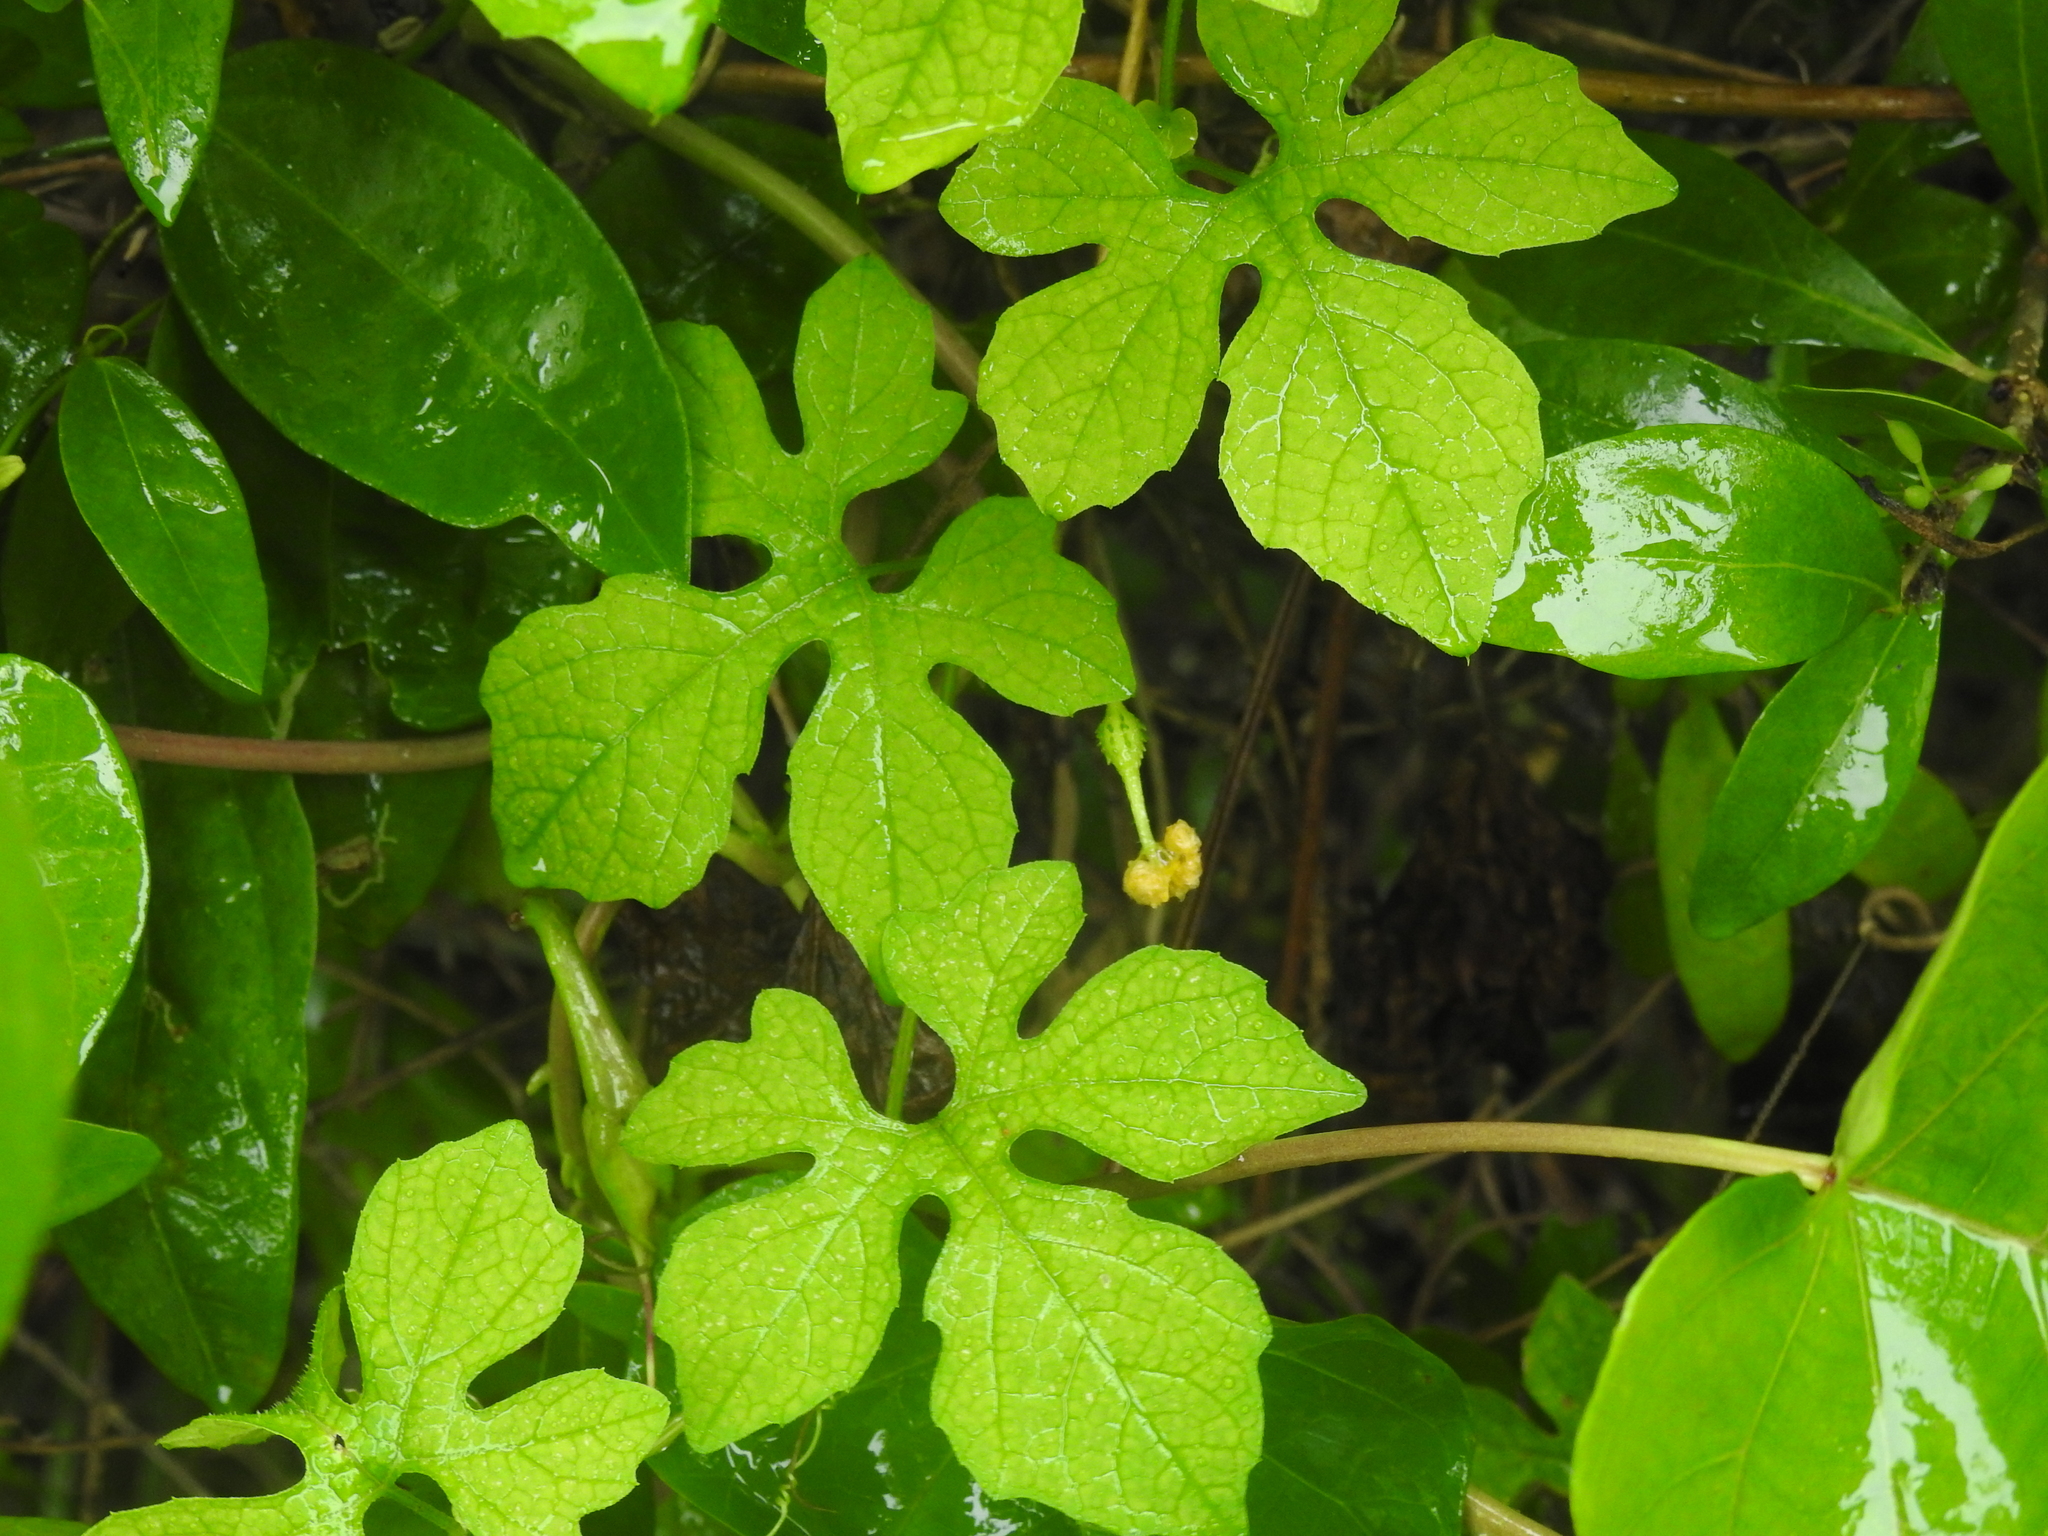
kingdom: Plantae
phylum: Tracheophyta
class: Magnoliopsida
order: Cucurbitales
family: Cucurbitaceae
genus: Momordica
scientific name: Momordica charantia
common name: Balsampear
